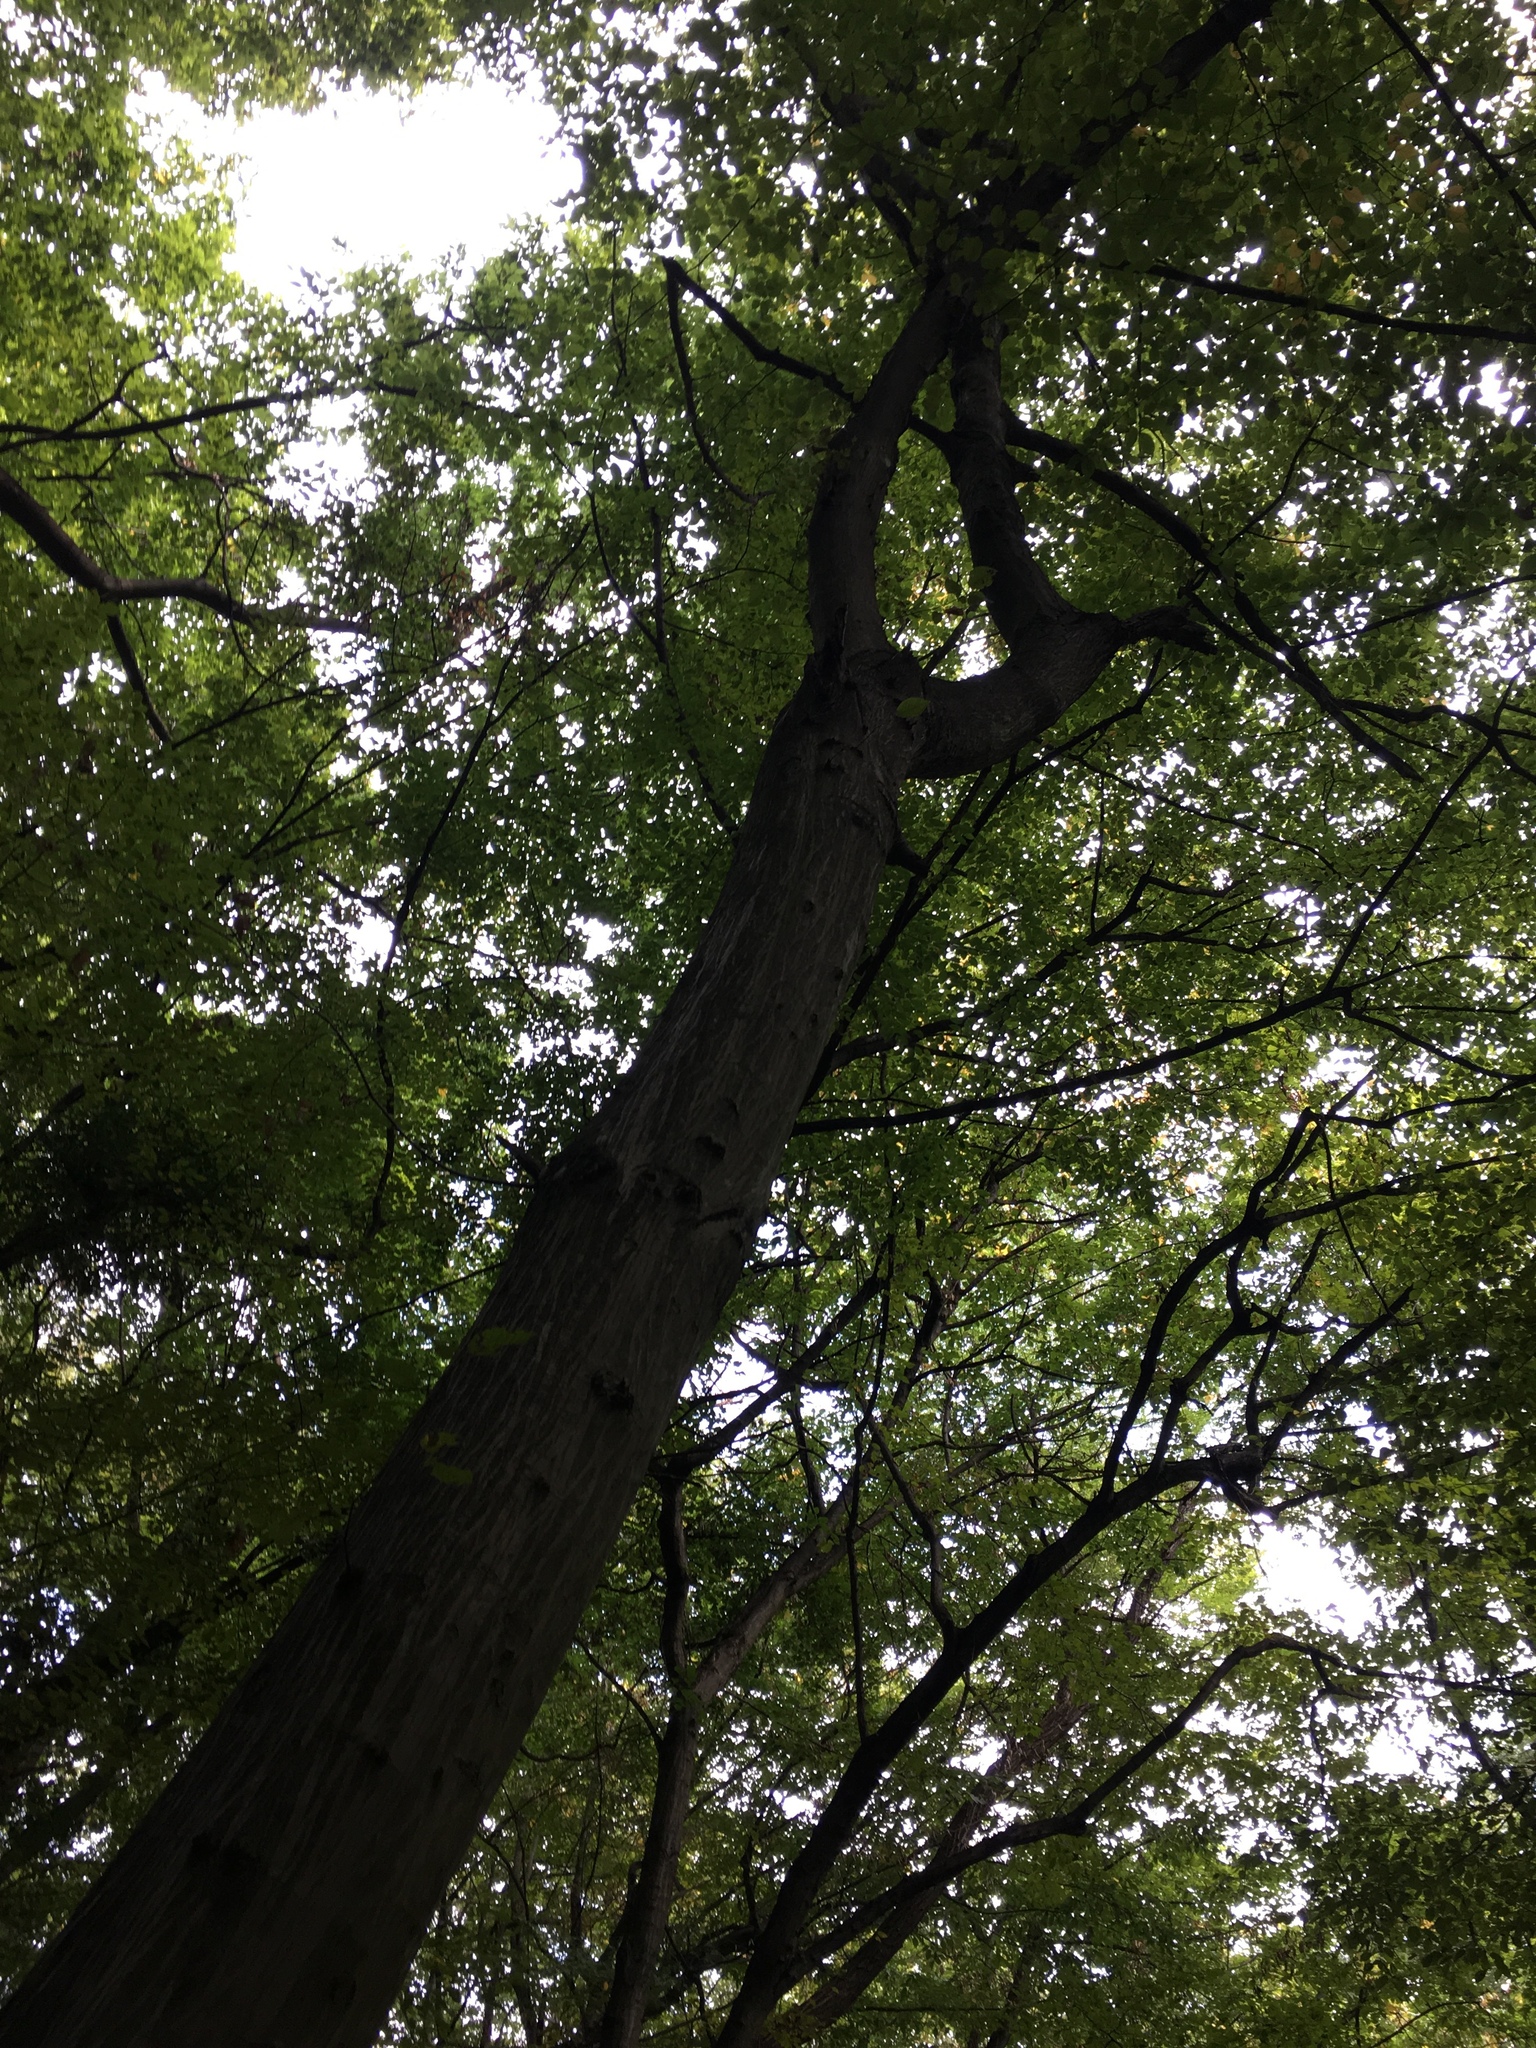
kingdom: Plantae
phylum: Tracheophyta
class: Magnoliopsida
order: Fagales
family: Betulaceae
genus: Carpinus
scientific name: Carpinus betulus
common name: Hornbeam
